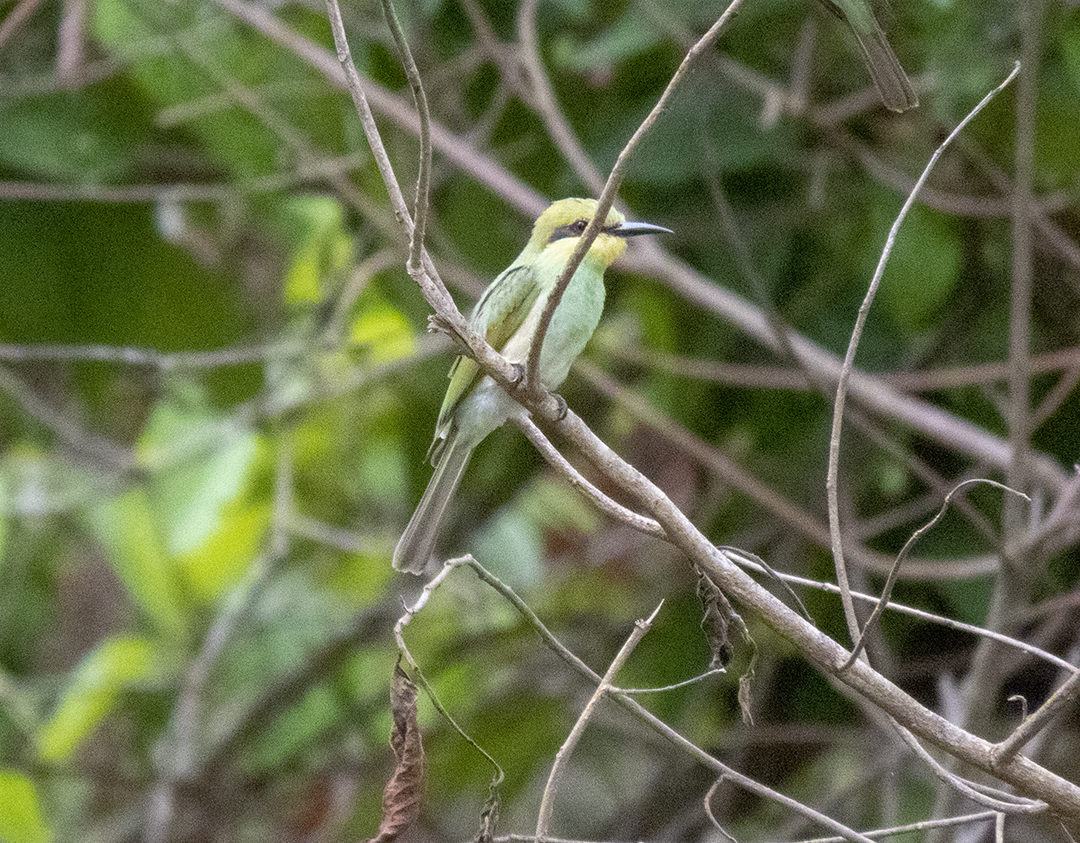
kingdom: Animalia
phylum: Chordata
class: Aves
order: Coraciiformes
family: Meropidae
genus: Merops
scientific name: Merops orientalis
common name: Green bee-eater
